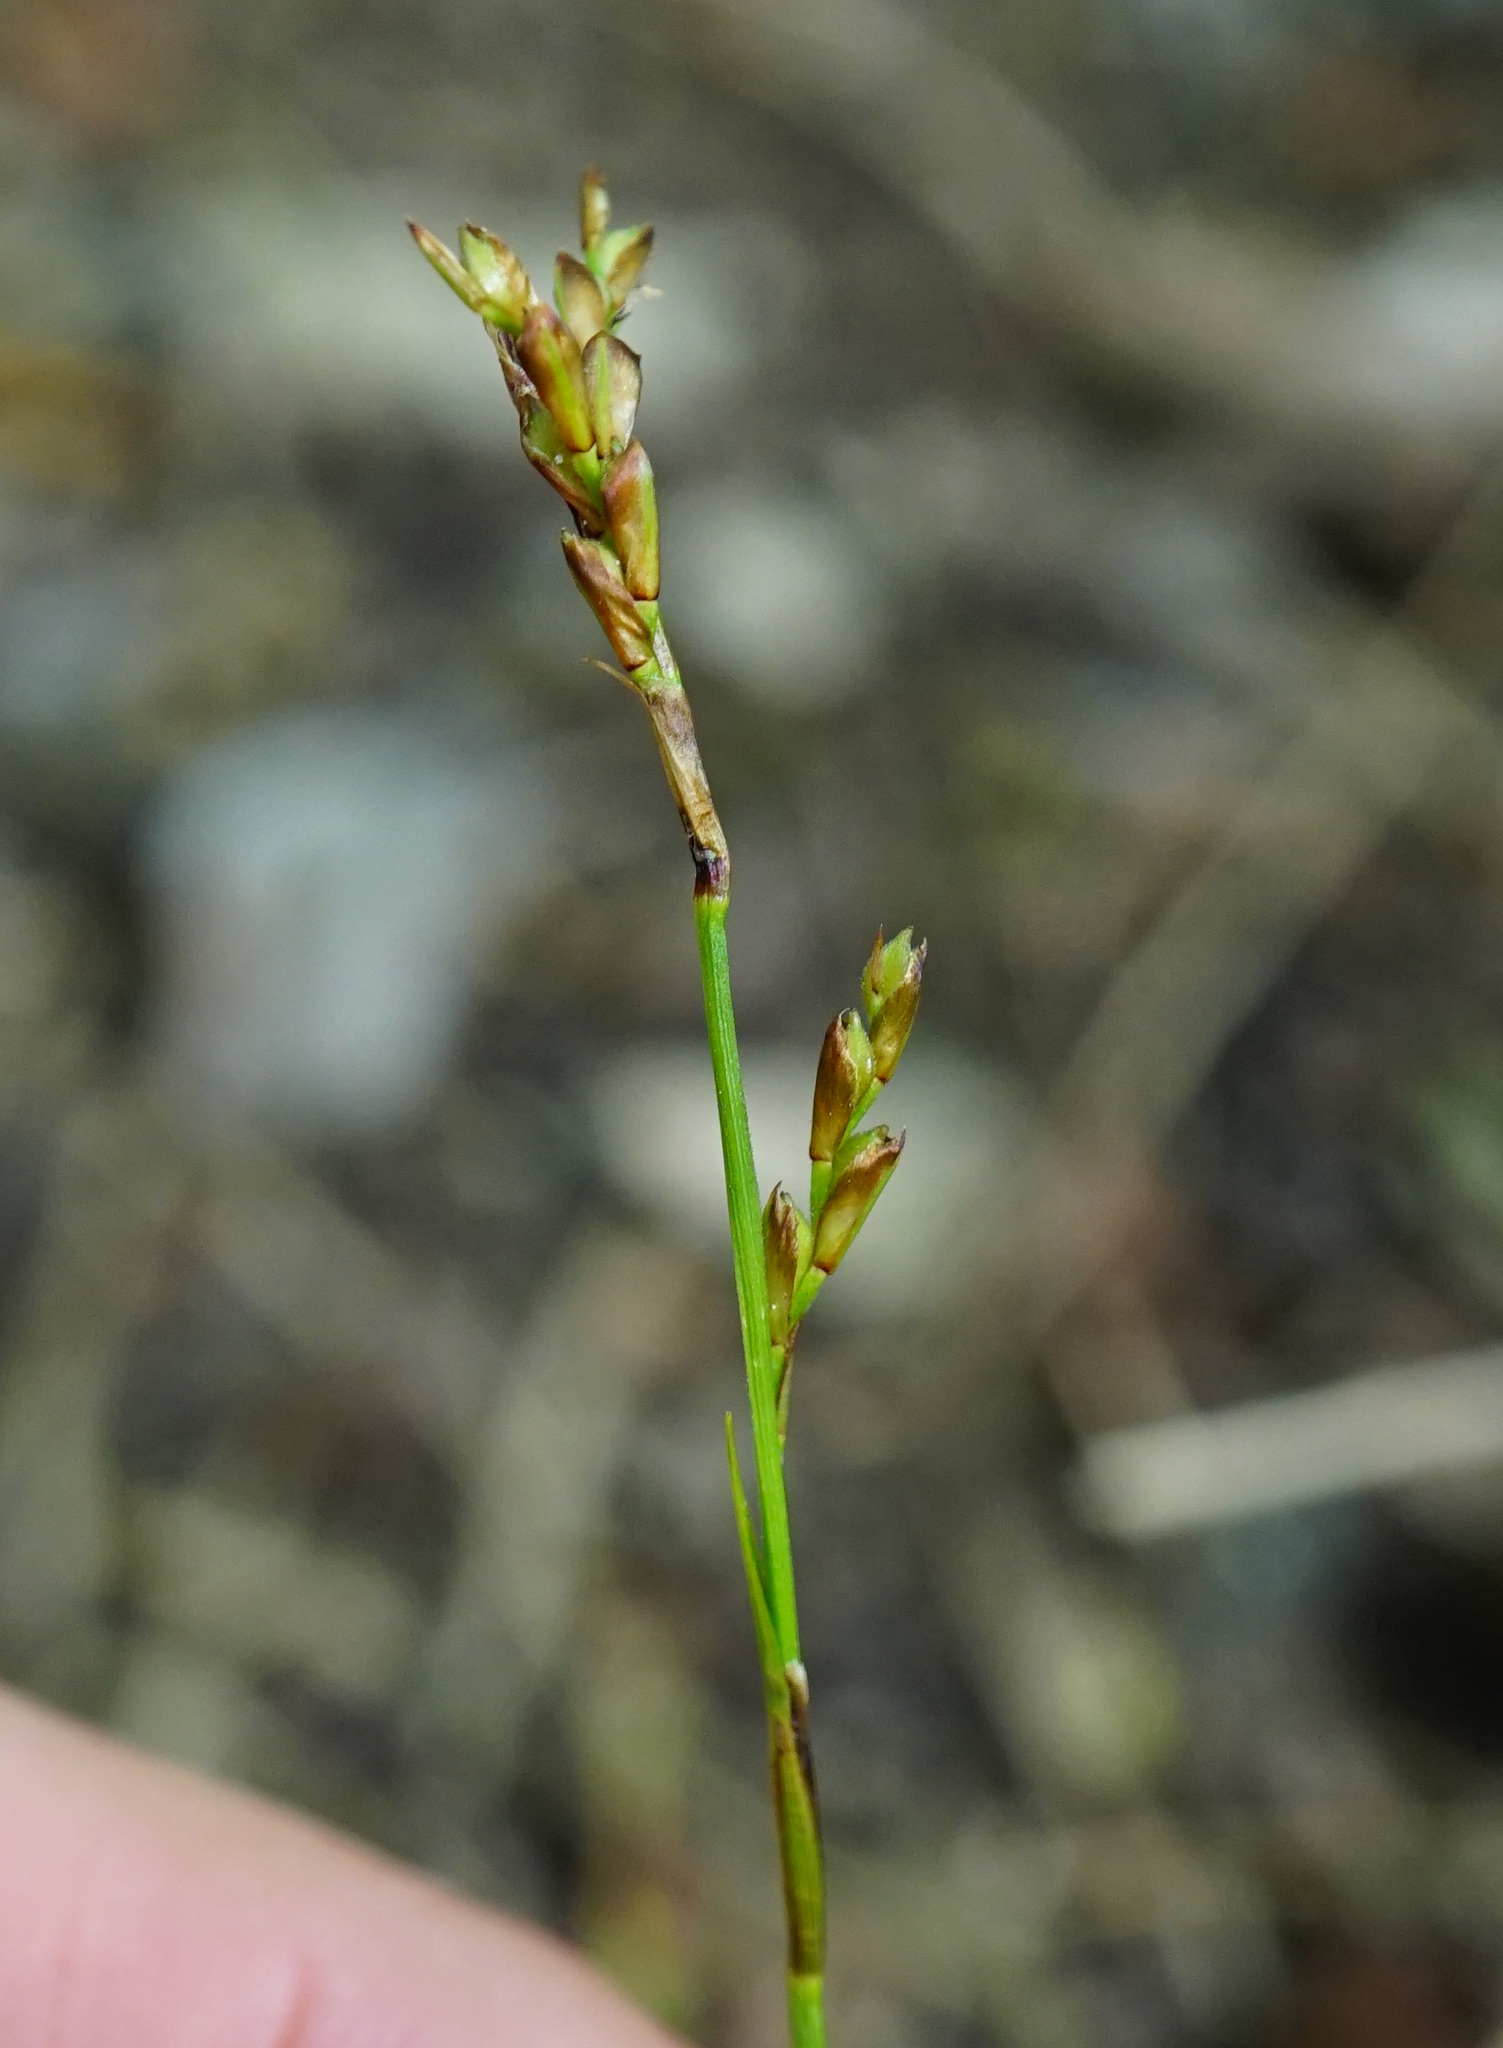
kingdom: Plantae
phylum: Tracheophyta
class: Liliopsida
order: Poales
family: Cyperaceae
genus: Carex
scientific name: Carex digitata
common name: Fingered sedge
